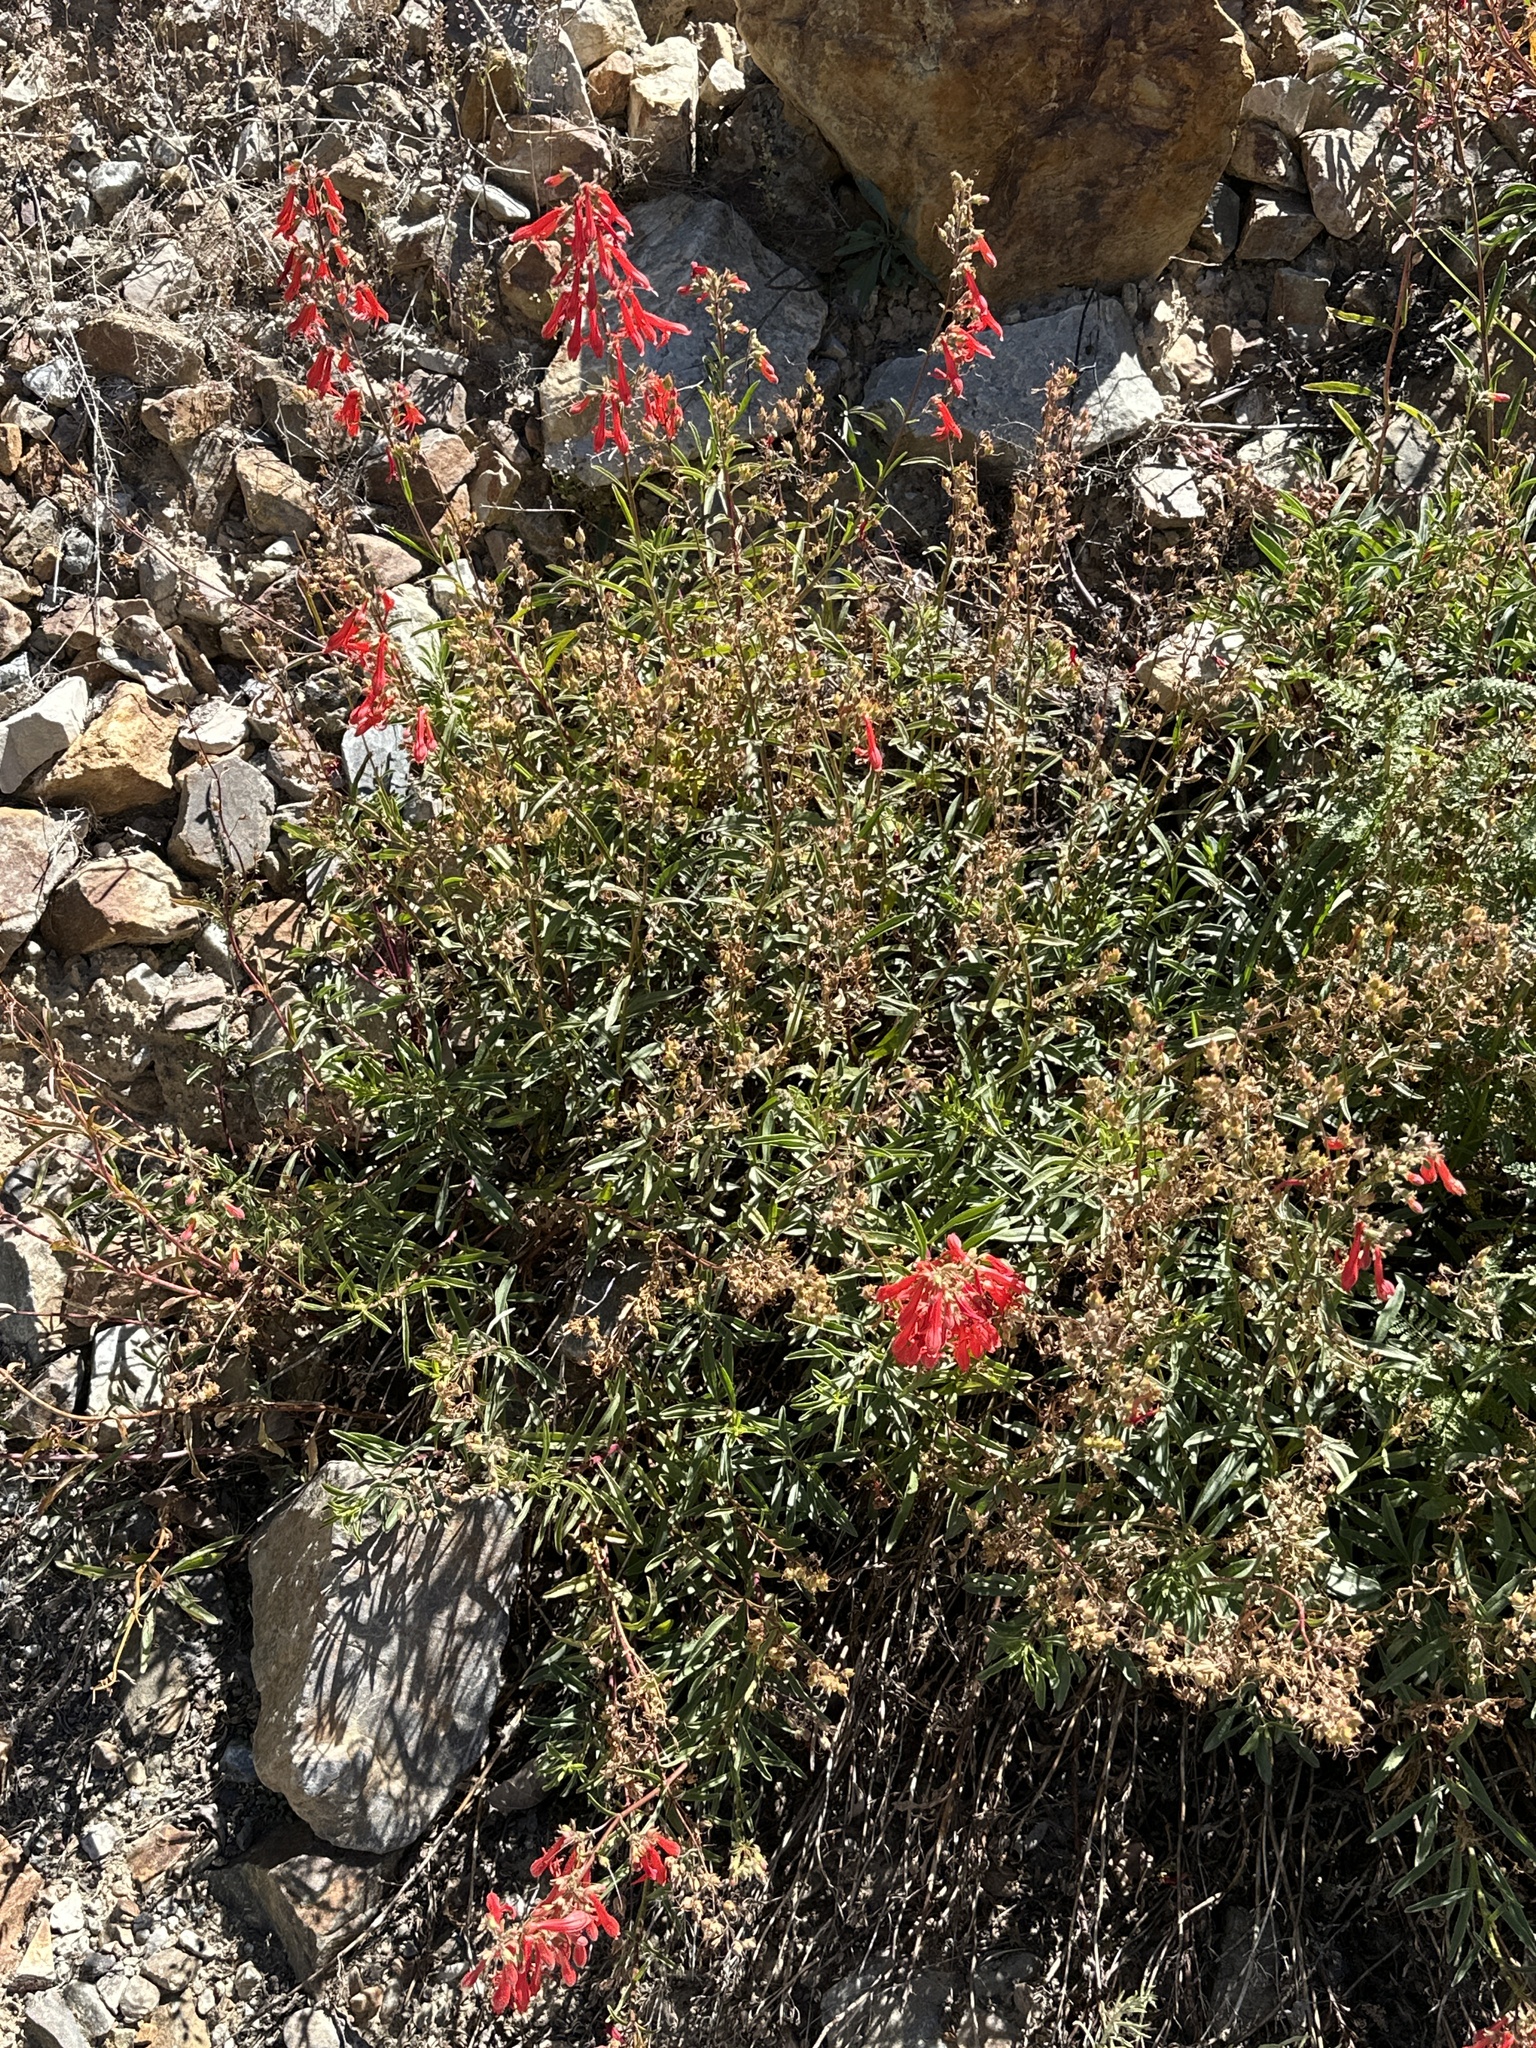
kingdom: Plantae
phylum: Tracheophyta
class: Magnoliopsida
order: Lamiales
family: Plantaginaceae
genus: Penstemon
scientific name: Penstemon rostriflorus
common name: Bridges's penstemon
